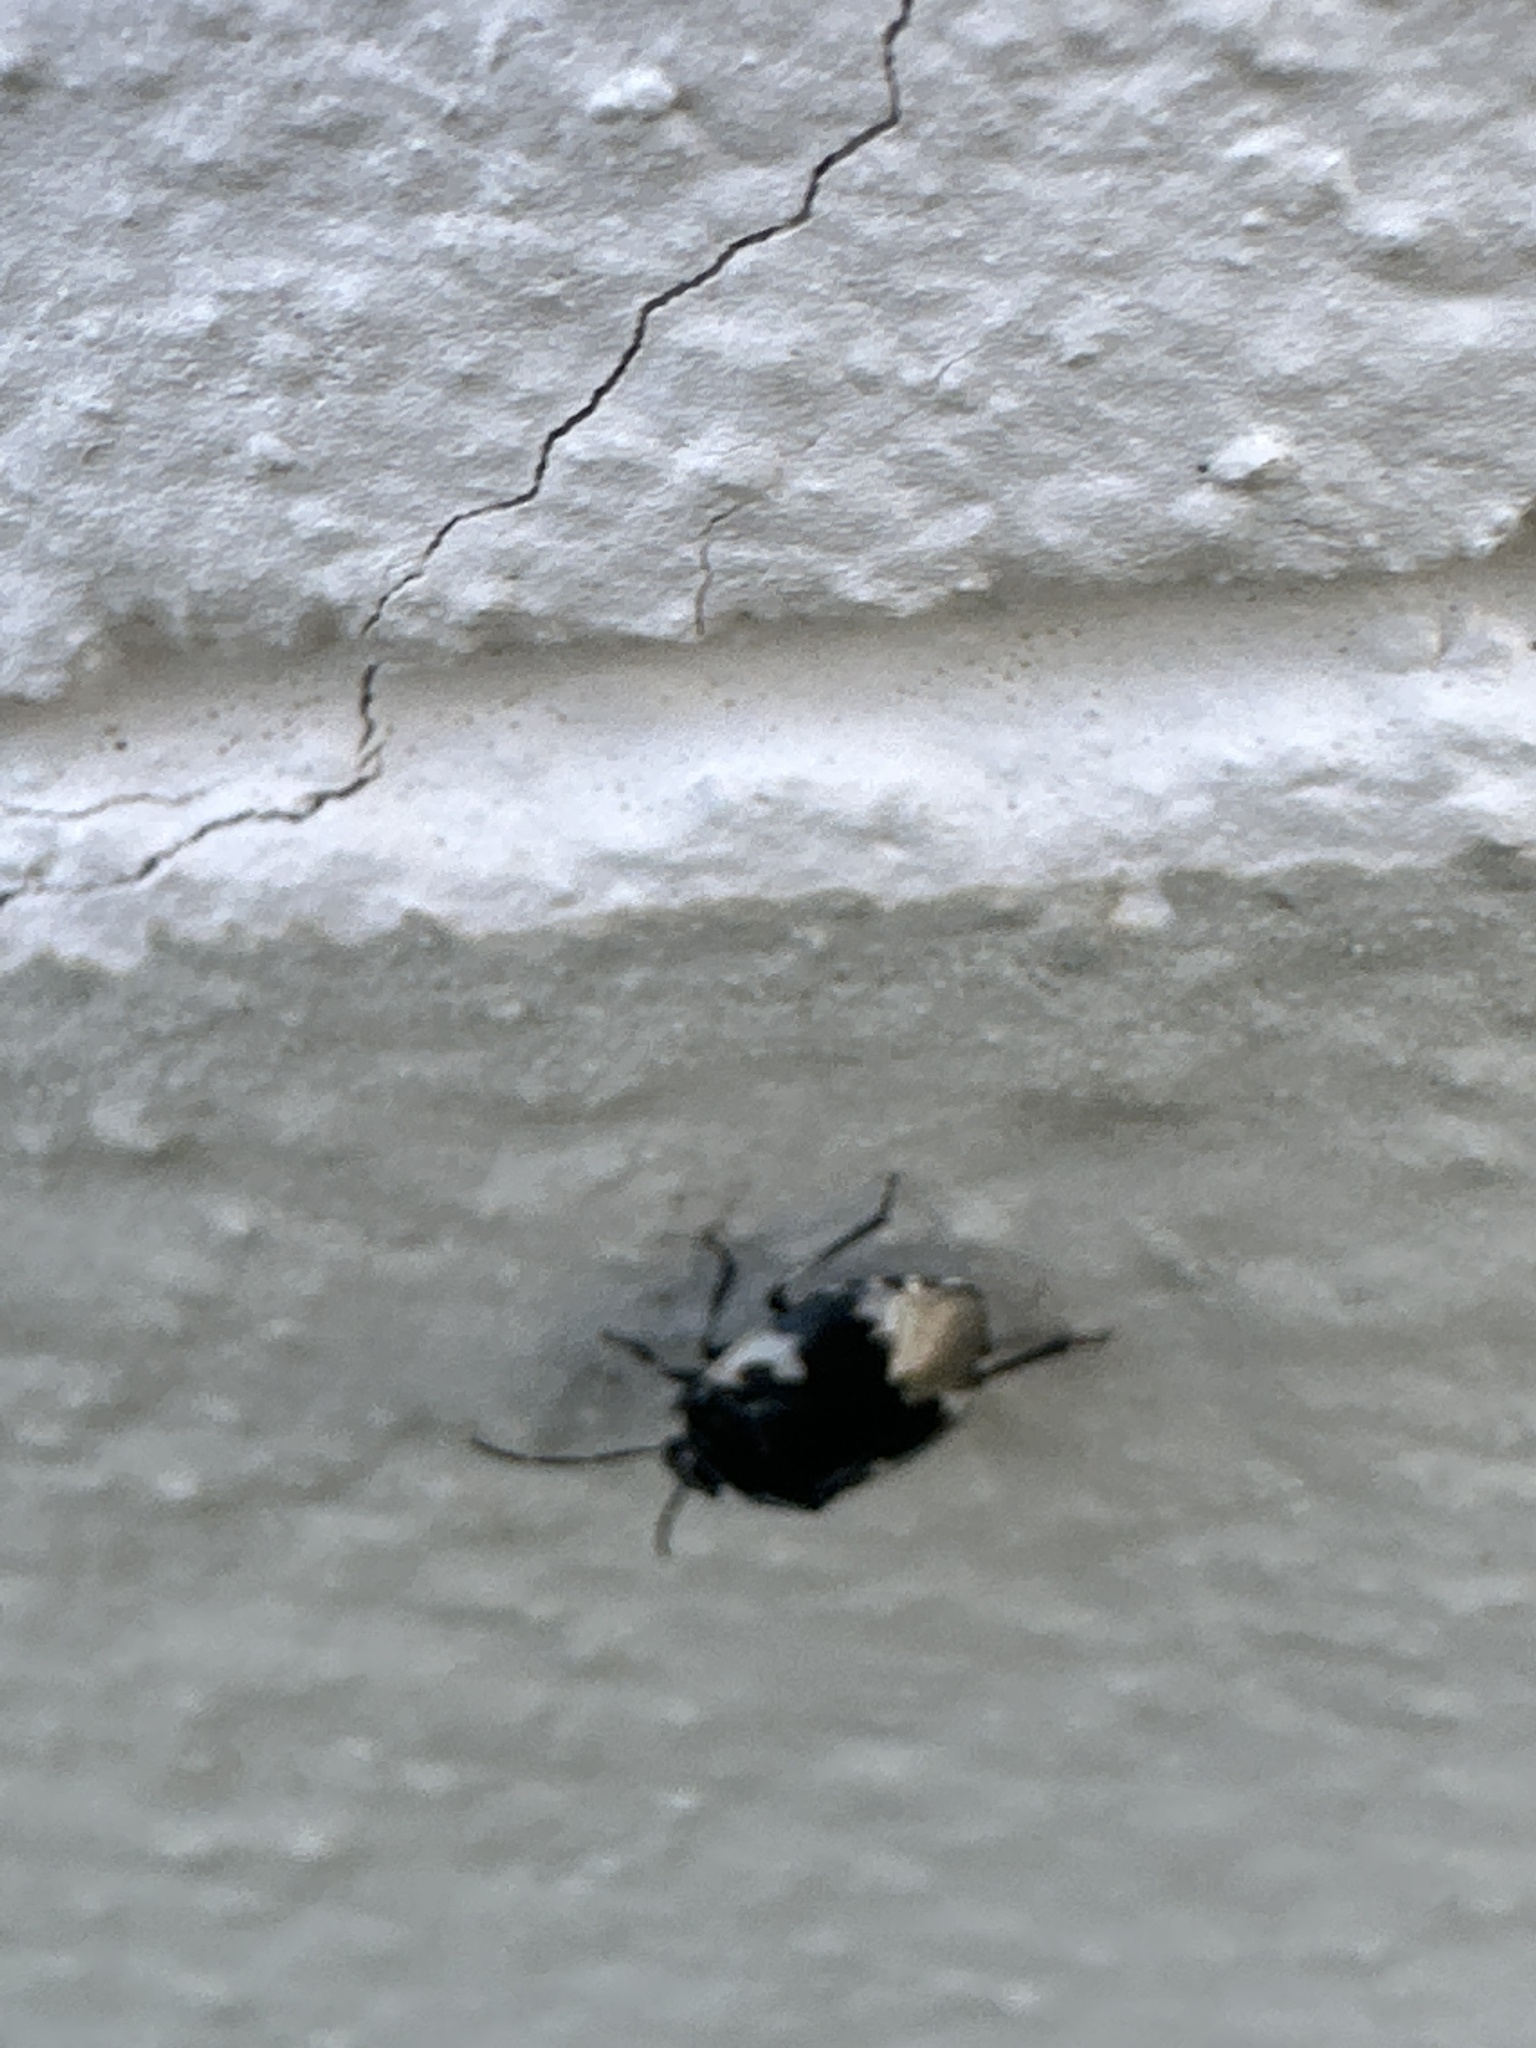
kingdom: Animalia
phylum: Arthropoda
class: Insecta
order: Hemiptera
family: Cydnidae
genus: Tritomegas
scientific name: Tritomegas bicolor
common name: Pied shieldbug
